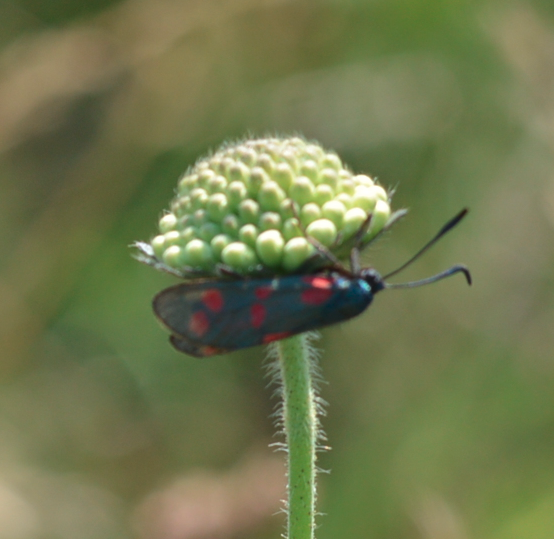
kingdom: Animalia
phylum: Arthropoda
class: Insecta
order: Lepidoptera
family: Zygaenidae
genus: Zygaena
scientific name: Zygaena filipendulae
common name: Six-spot burnet
